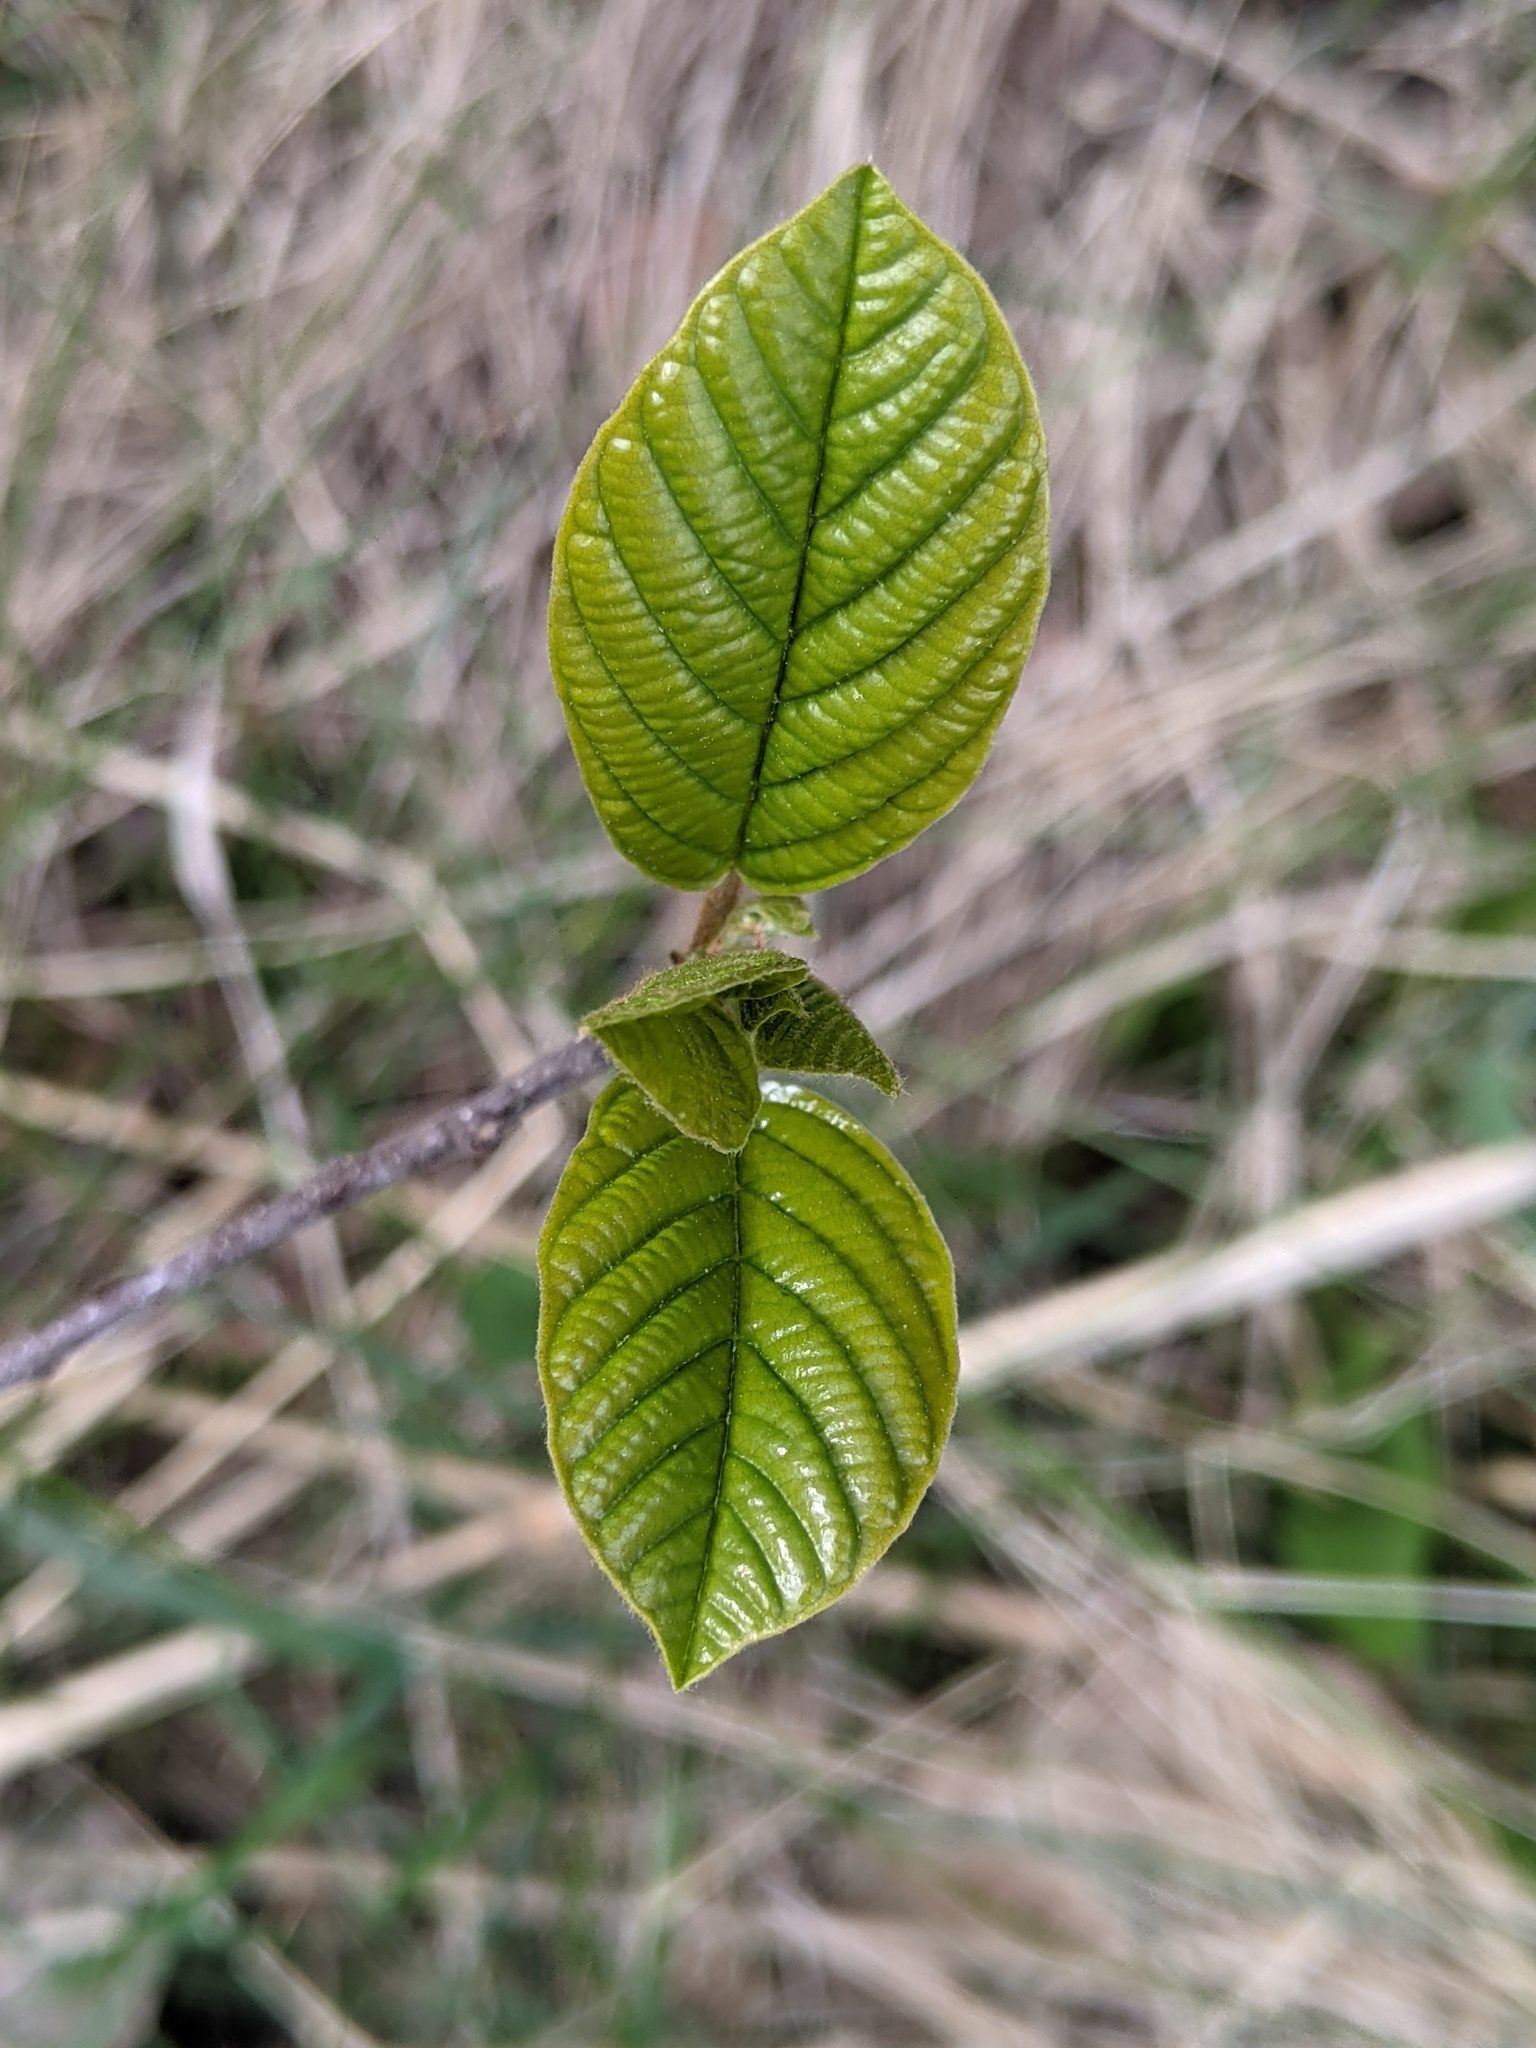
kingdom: Plantae
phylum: Tracheophyta
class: Magnoliopsida
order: Rosales
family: Rhamnaceae
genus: Frangula
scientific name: Frangula alnus
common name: Alder buckthorn
